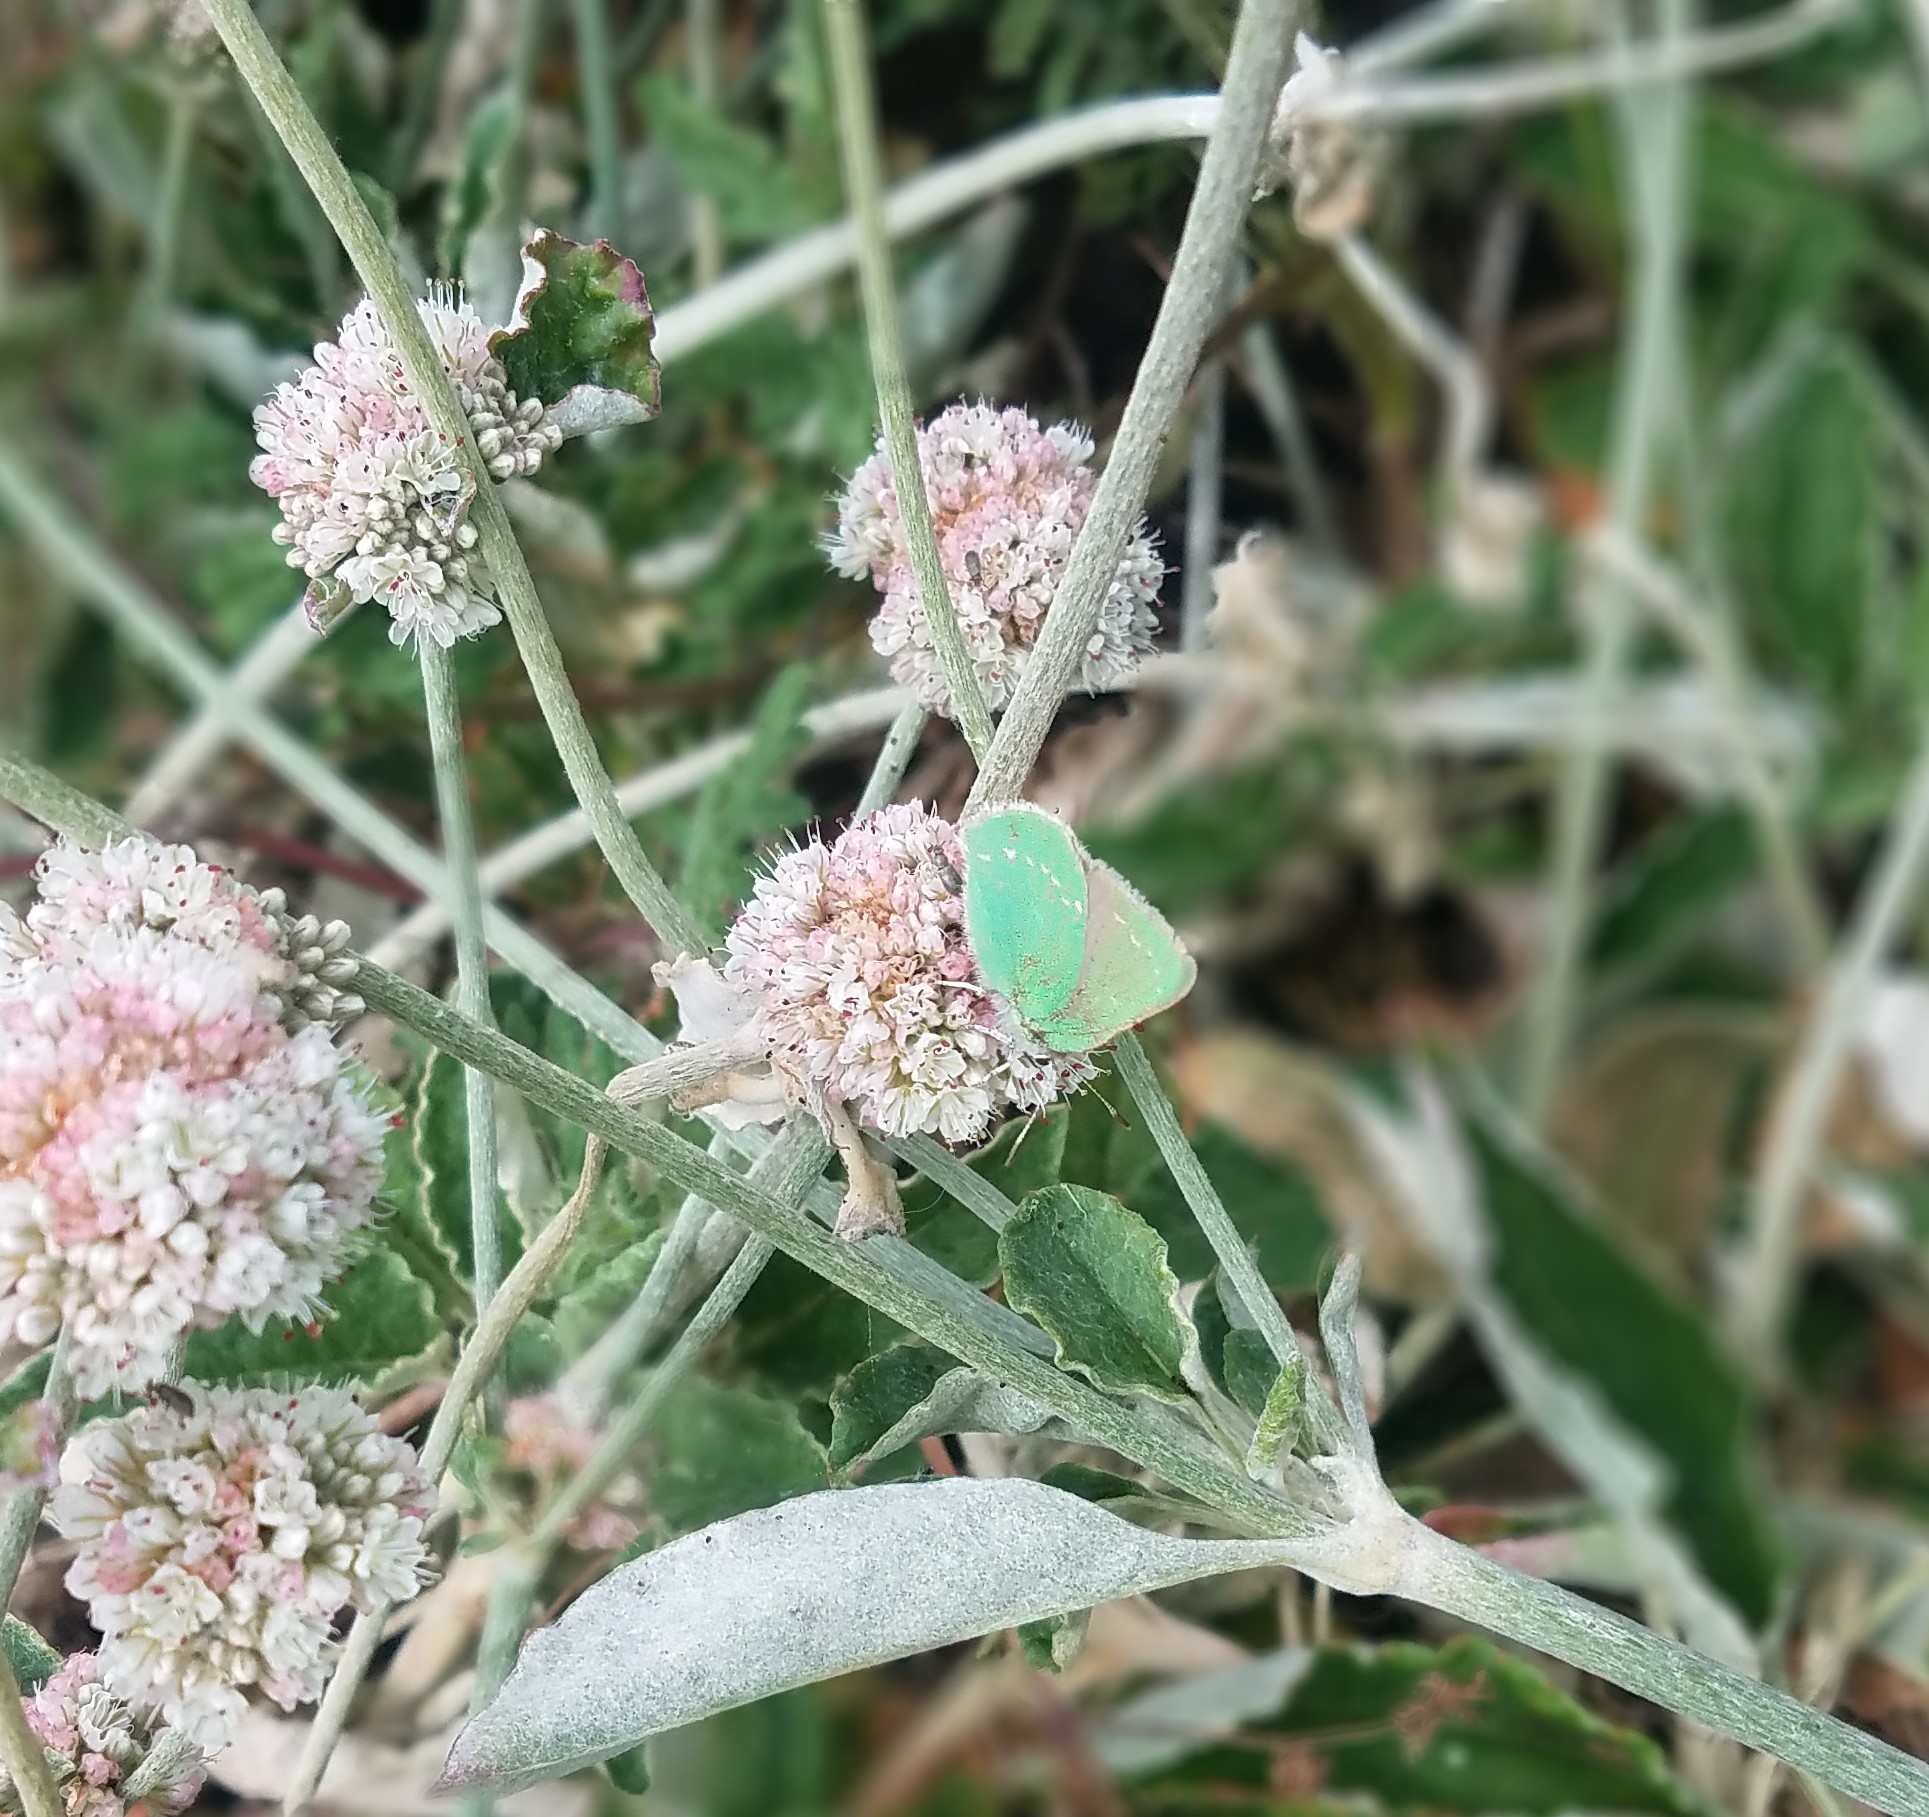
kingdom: Animalia
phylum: Arthropoda
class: Insecta
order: Lepidoptera
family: Lycaenidae
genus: Callophrys
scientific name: Callophrys viridis
